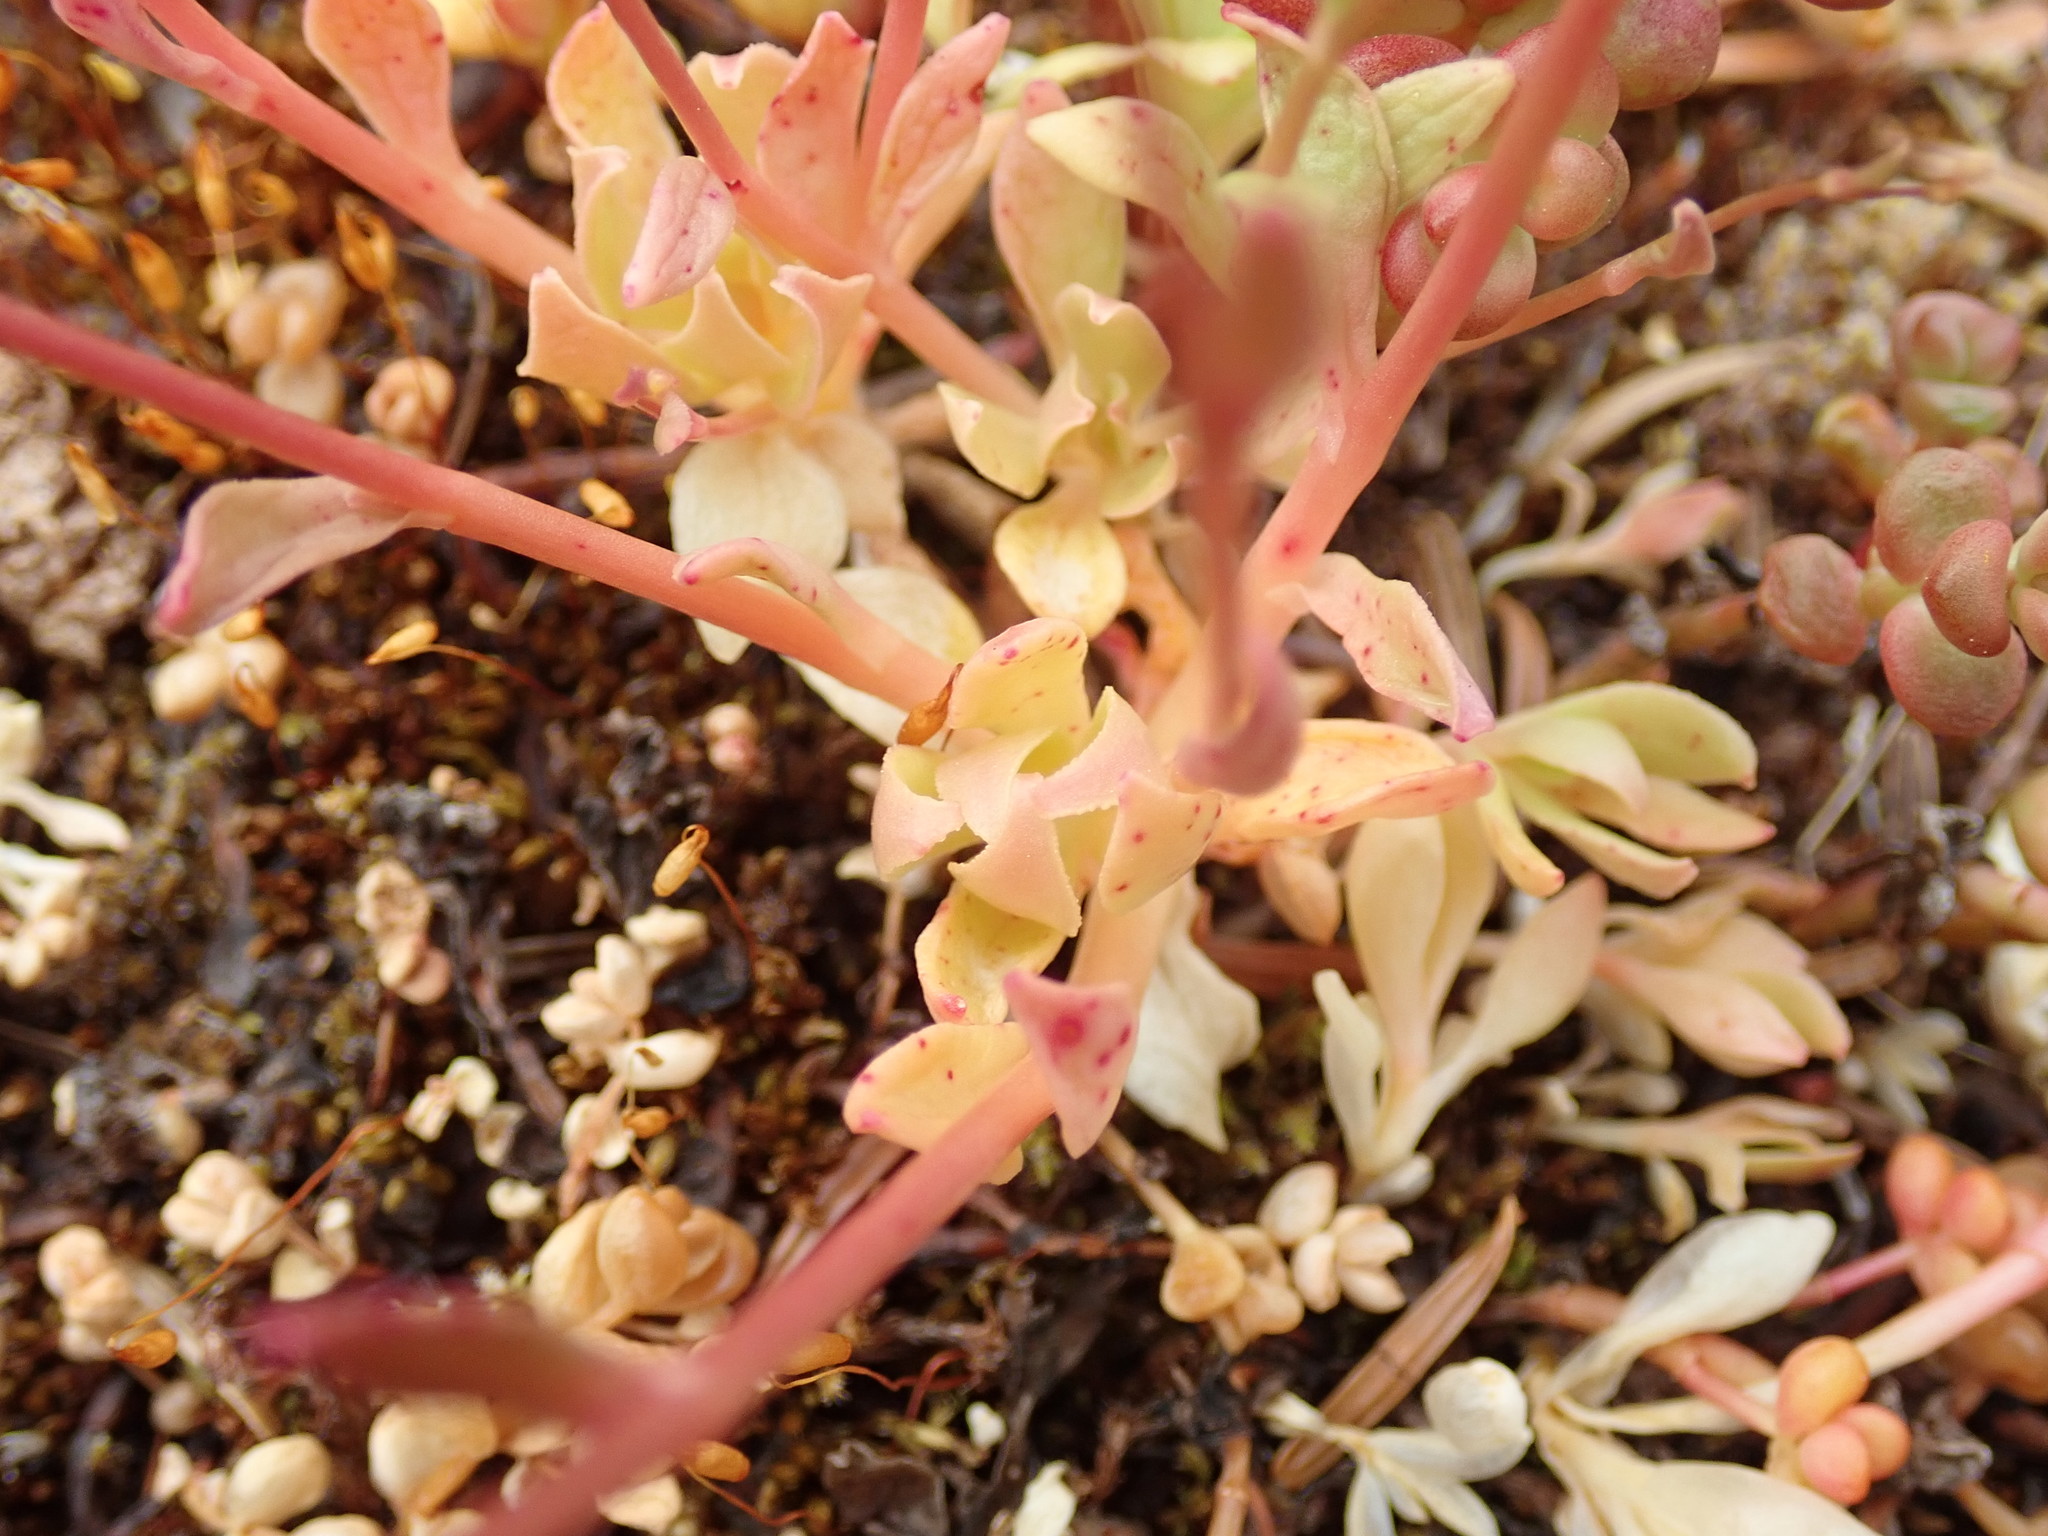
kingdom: Plantae
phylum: Tracheophyta
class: Magnoliopsida
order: Caryophyllales
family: Montiaceae
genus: Montia
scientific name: Montia parvifolia
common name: Small-leaved blinks
